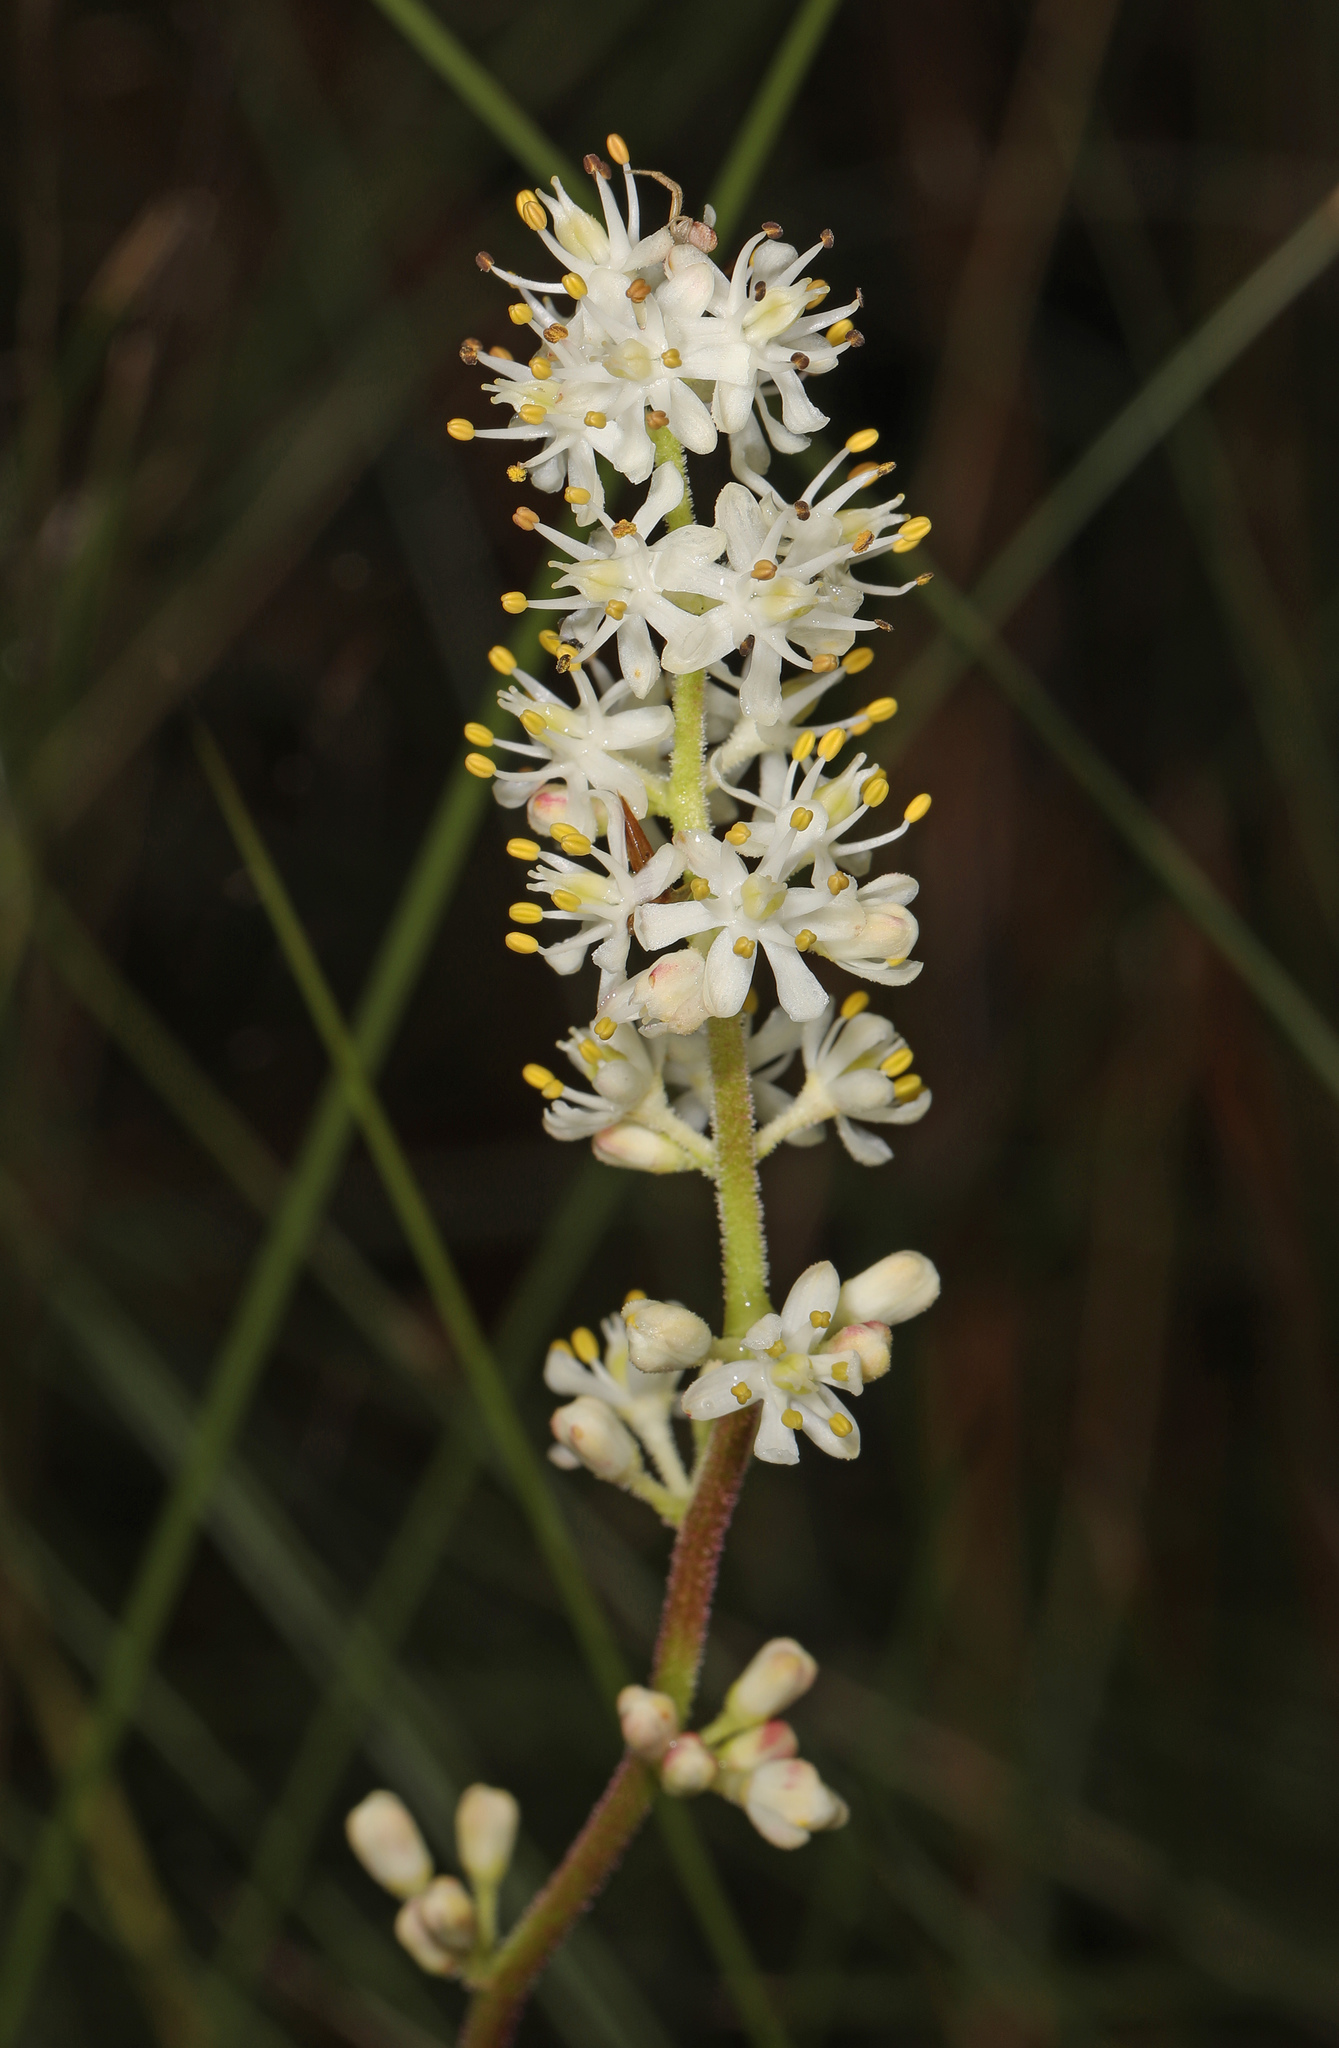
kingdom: Plantae
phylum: Tracheophyta
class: Liliopsida
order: Alismatales
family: Tofieldiaceae
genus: Triantha
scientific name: Triantha racemosa
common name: Coastal false asphodel
